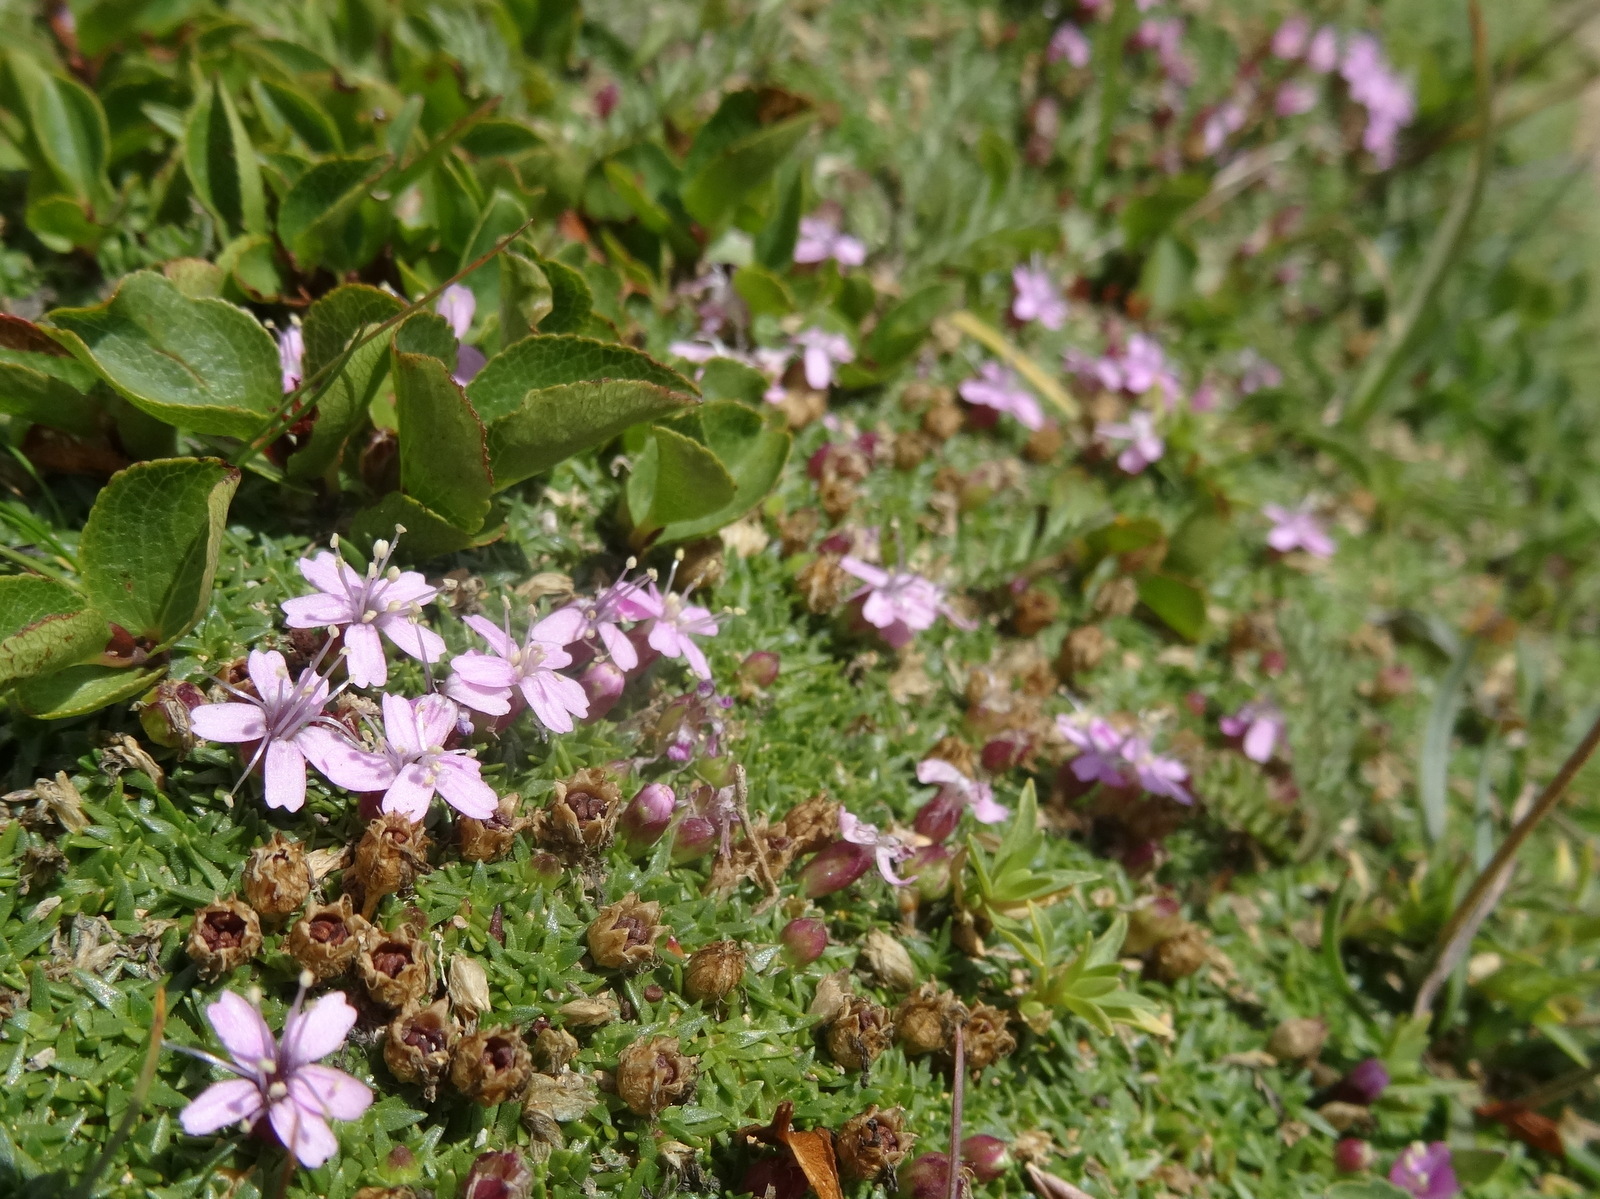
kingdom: Plantae
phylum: Tracheophyta
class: Magnoliopsida
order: Caryophyllales
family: Caryophyllaceae
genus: Silene
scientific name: Silene acaulis
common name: Moss campion
